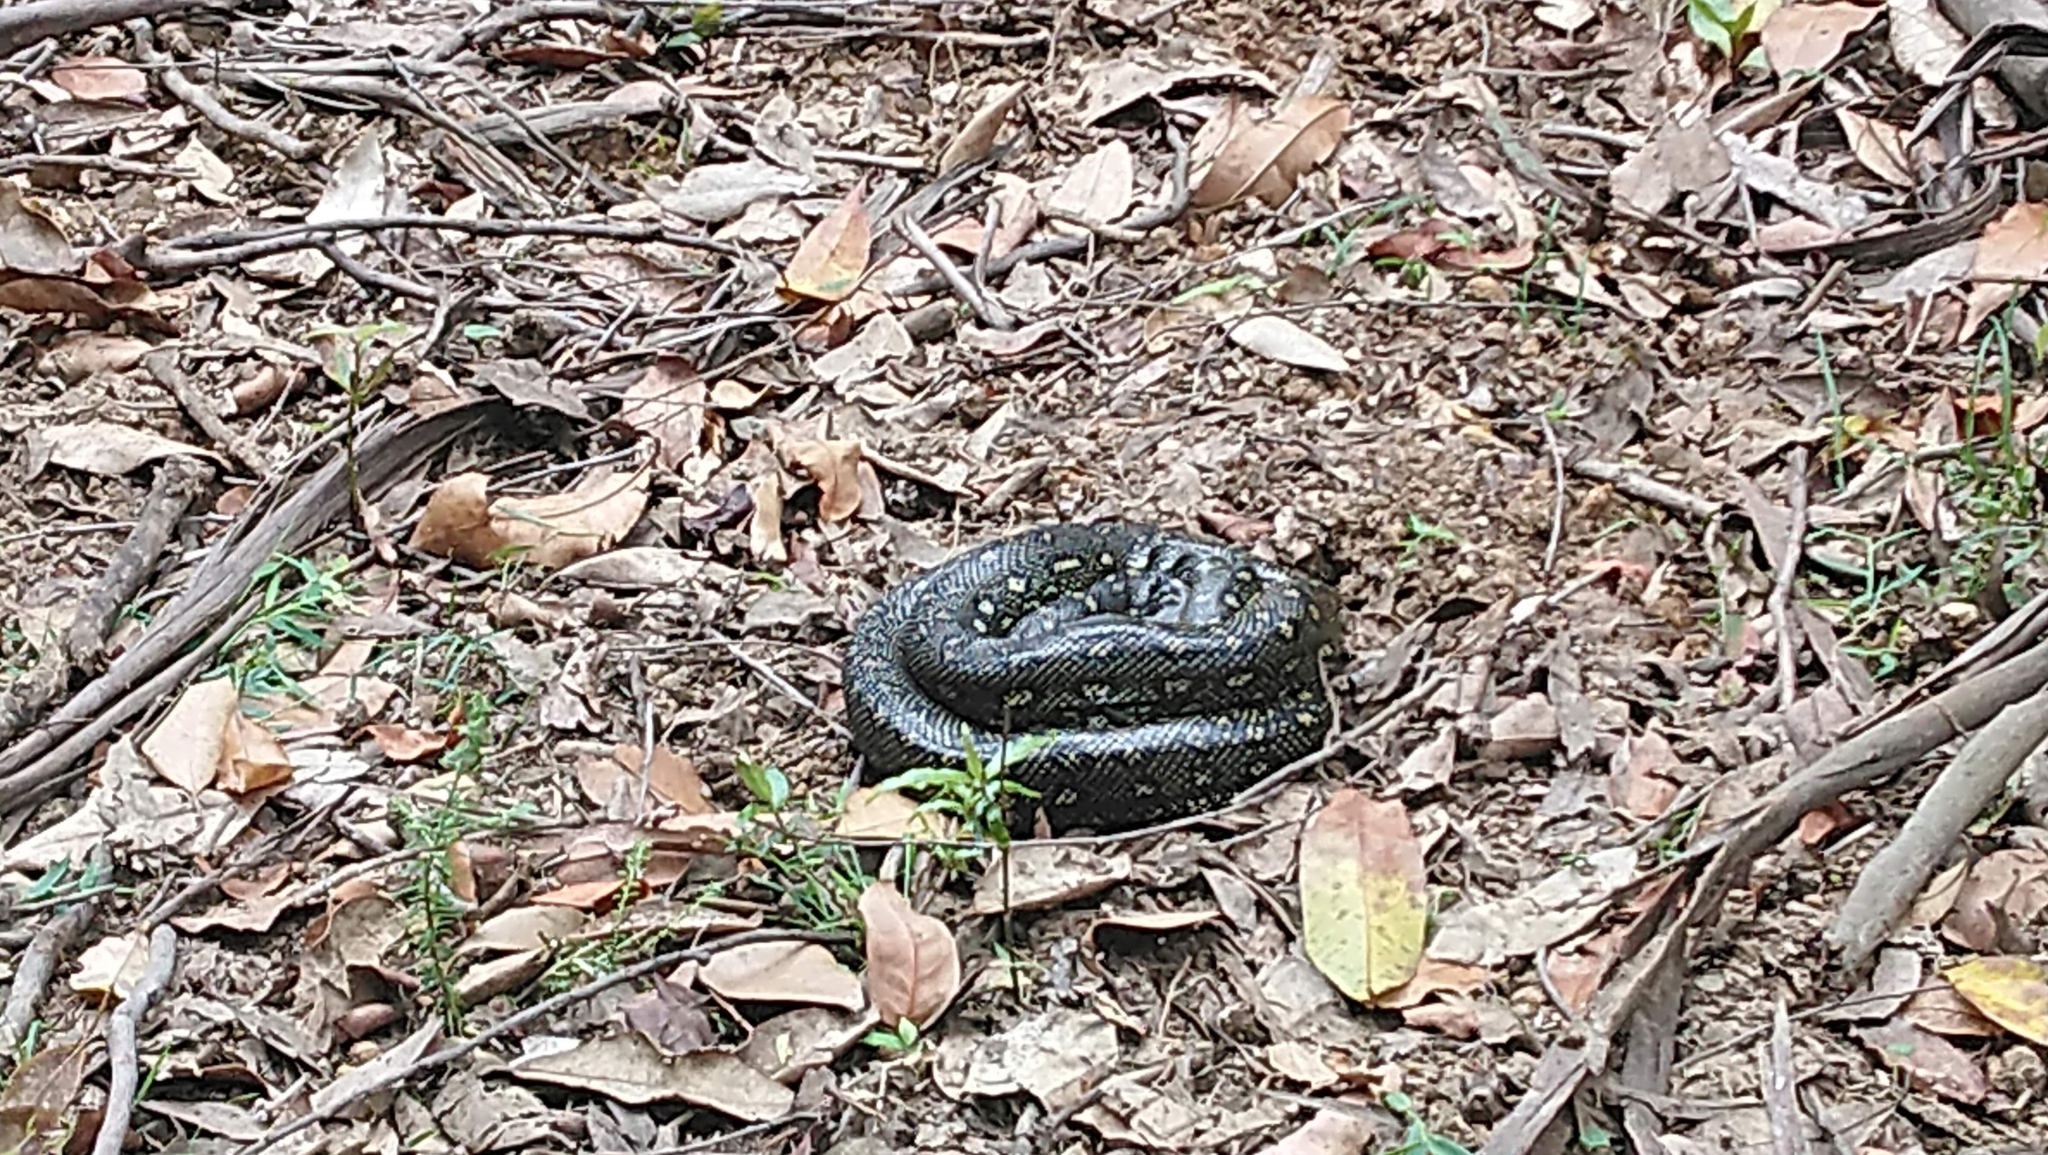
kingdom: Animalia
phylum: Chordata
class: Squamata
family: Pythonidae
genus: Morelia
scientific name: Morelia spilota
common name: Carpet python
